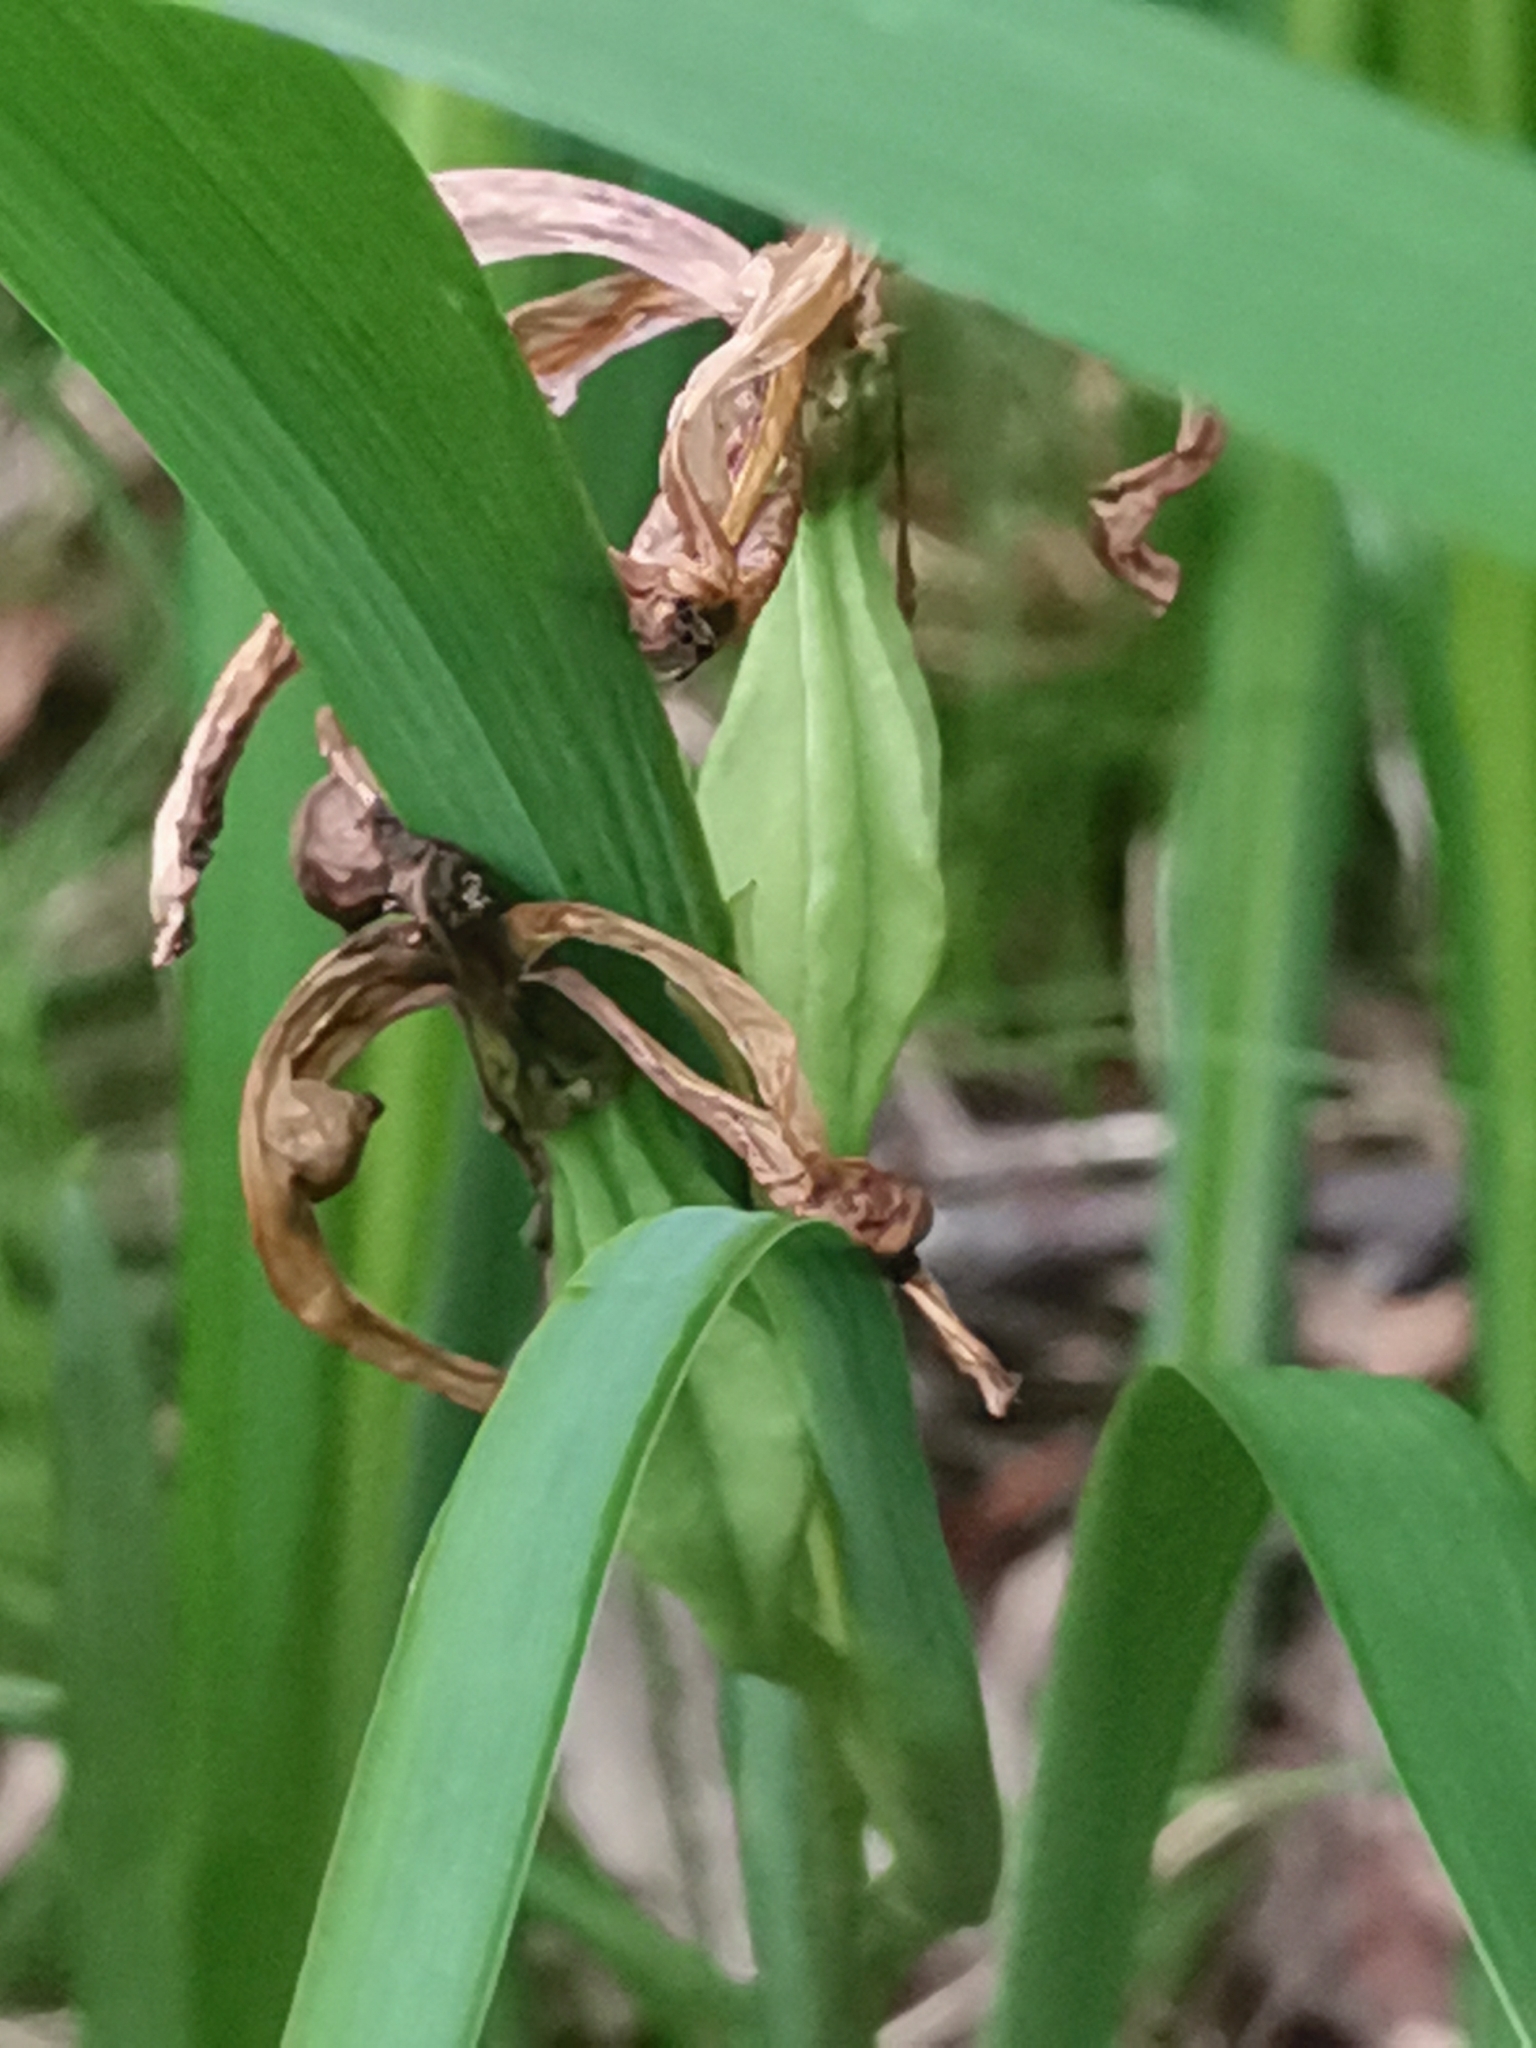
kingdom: Plantae
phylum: Tracheophyta
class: Liliopsida
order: Asparagales
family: Iridaceae
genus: Iris
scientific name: Iris graminea
